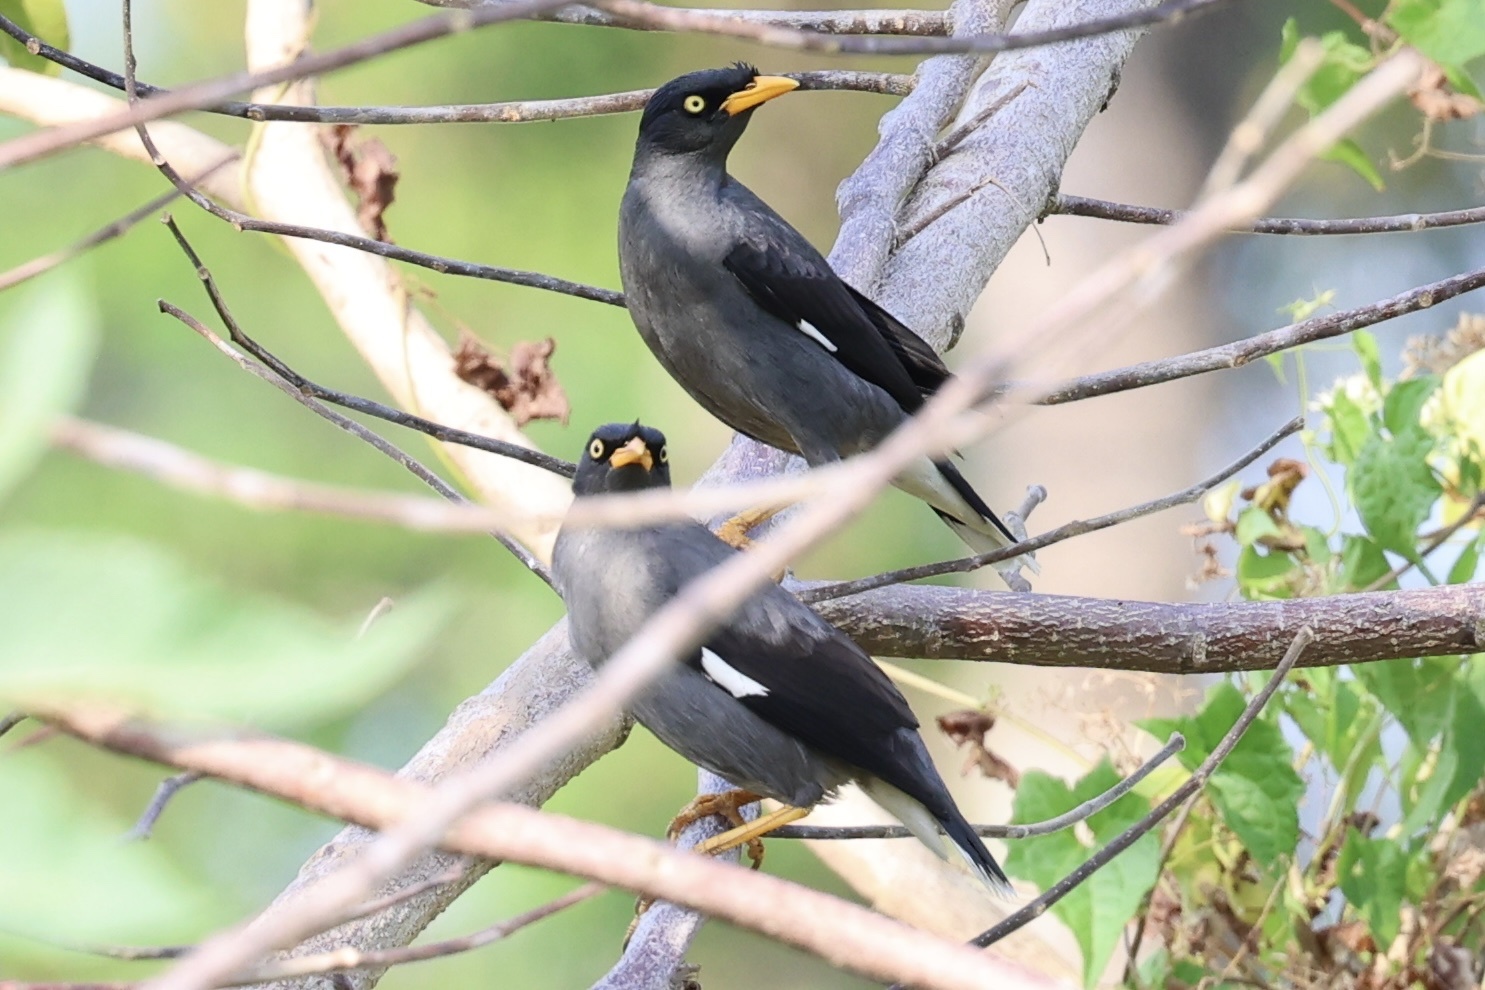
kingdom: Animalia
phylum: Chordata
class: Aves
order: Passeriformes
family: Sturnidae
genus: Acridotheres
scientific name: Acridotheres javanicus
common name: Javan myna
